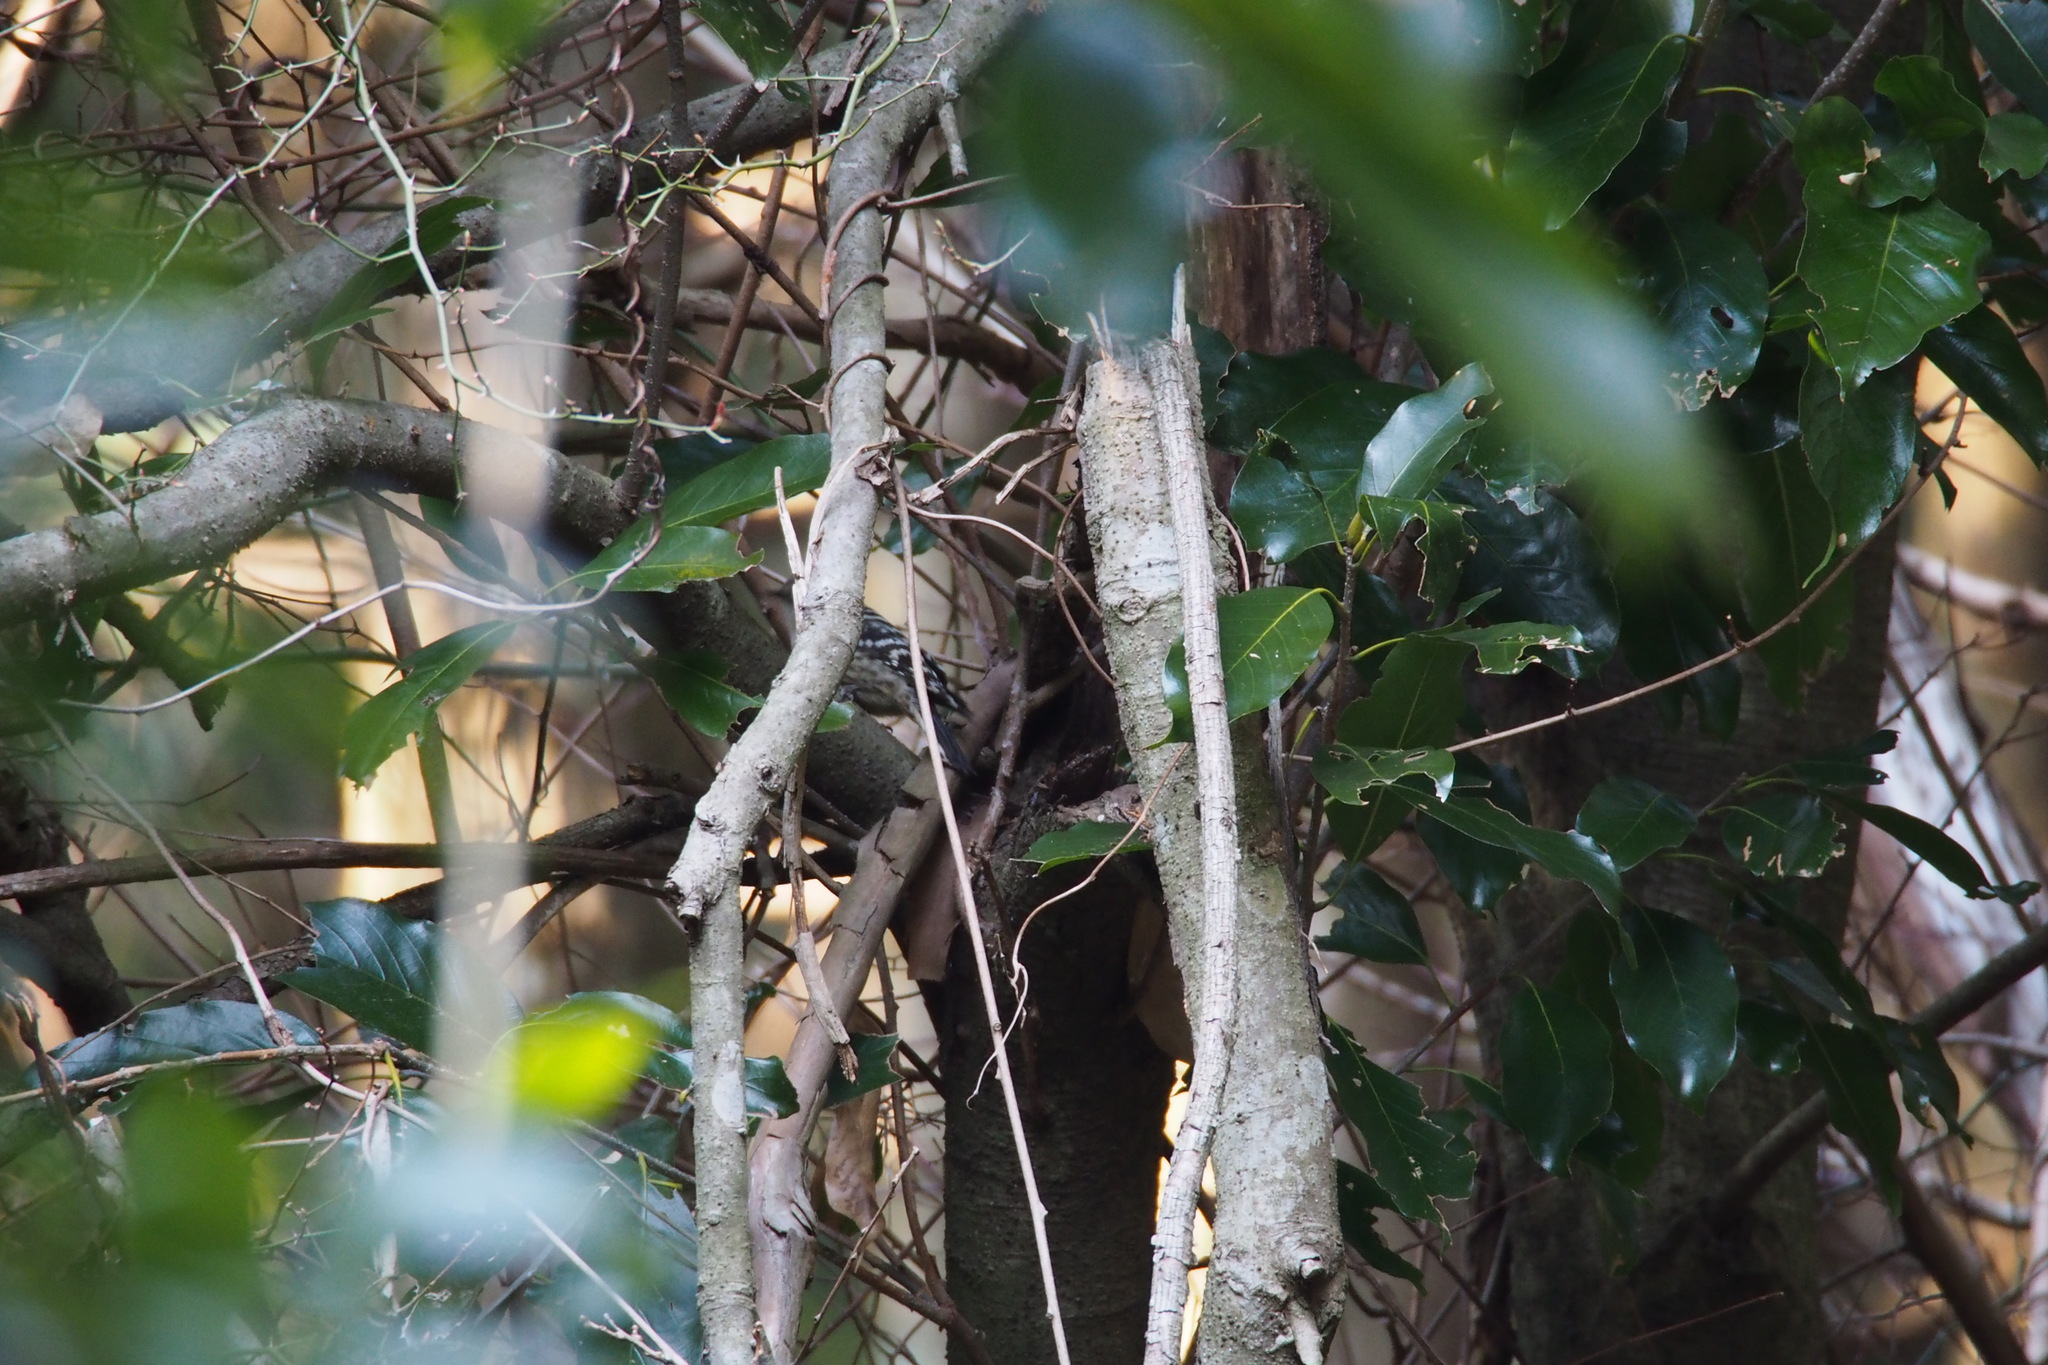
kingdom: Animalia
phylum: Chordata
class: Aves
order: Piciformes
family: Picidae
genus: Yungipicus
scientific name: Yungipicus kizuki
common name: Japanese pygmy woodpecker
